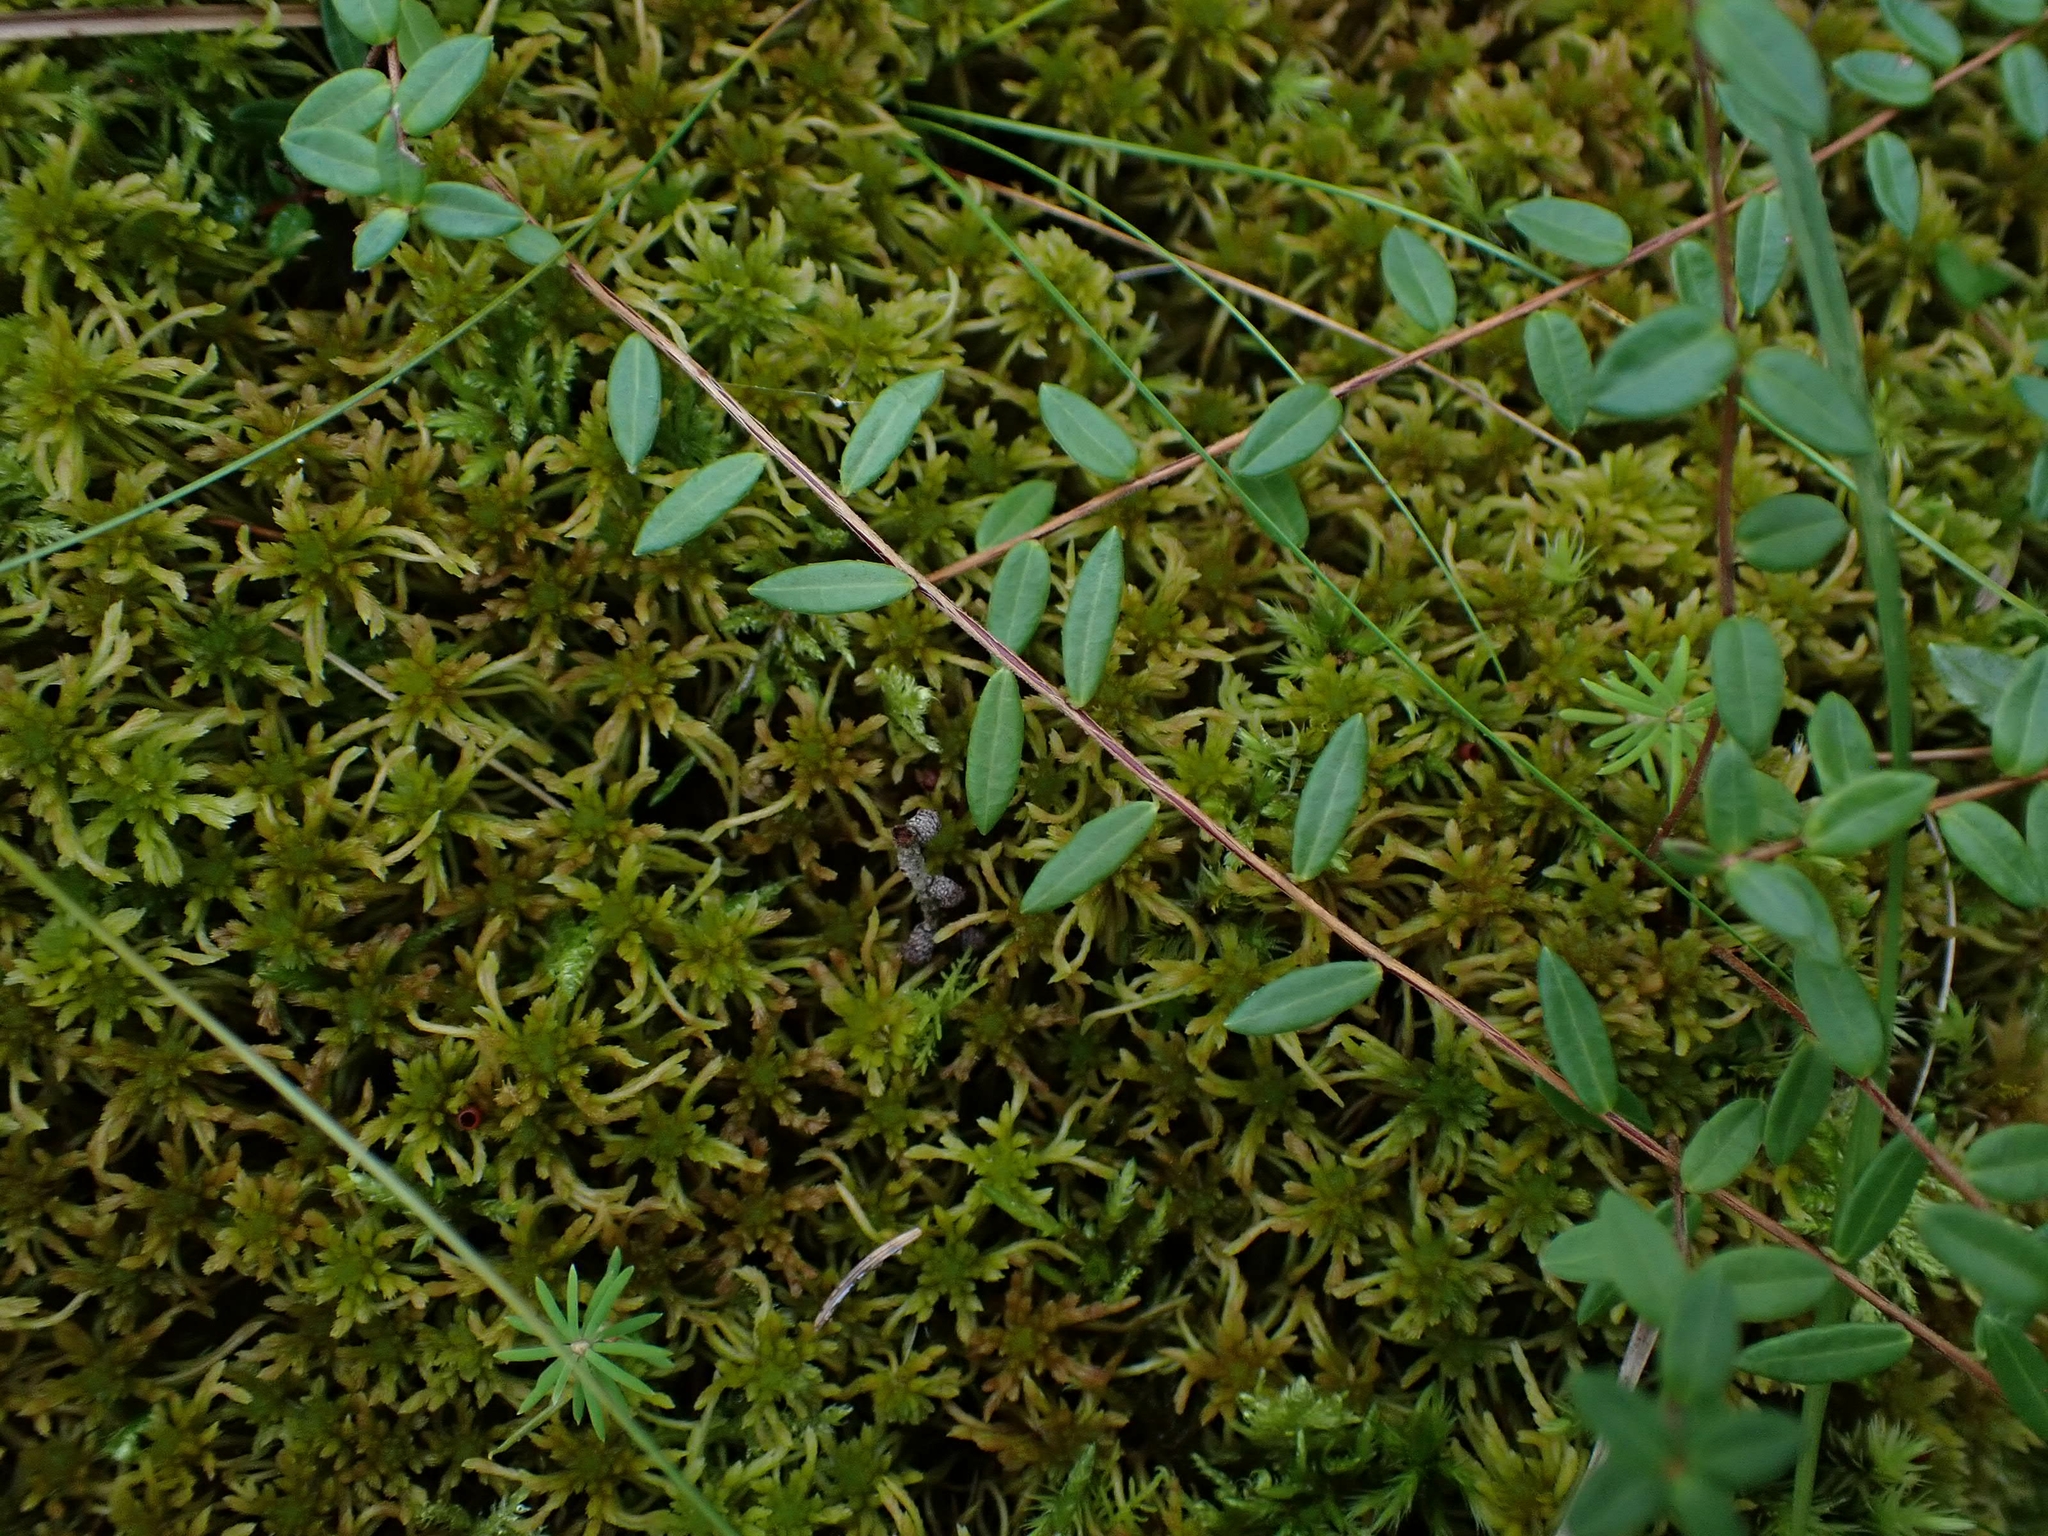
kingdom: Plantae
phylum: Tracheophyta
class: Magnoliopsida
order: Ericales
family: Ericaceae
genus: Vaccinium
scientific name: Vaccinium oxycoccos
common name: Cranberry
